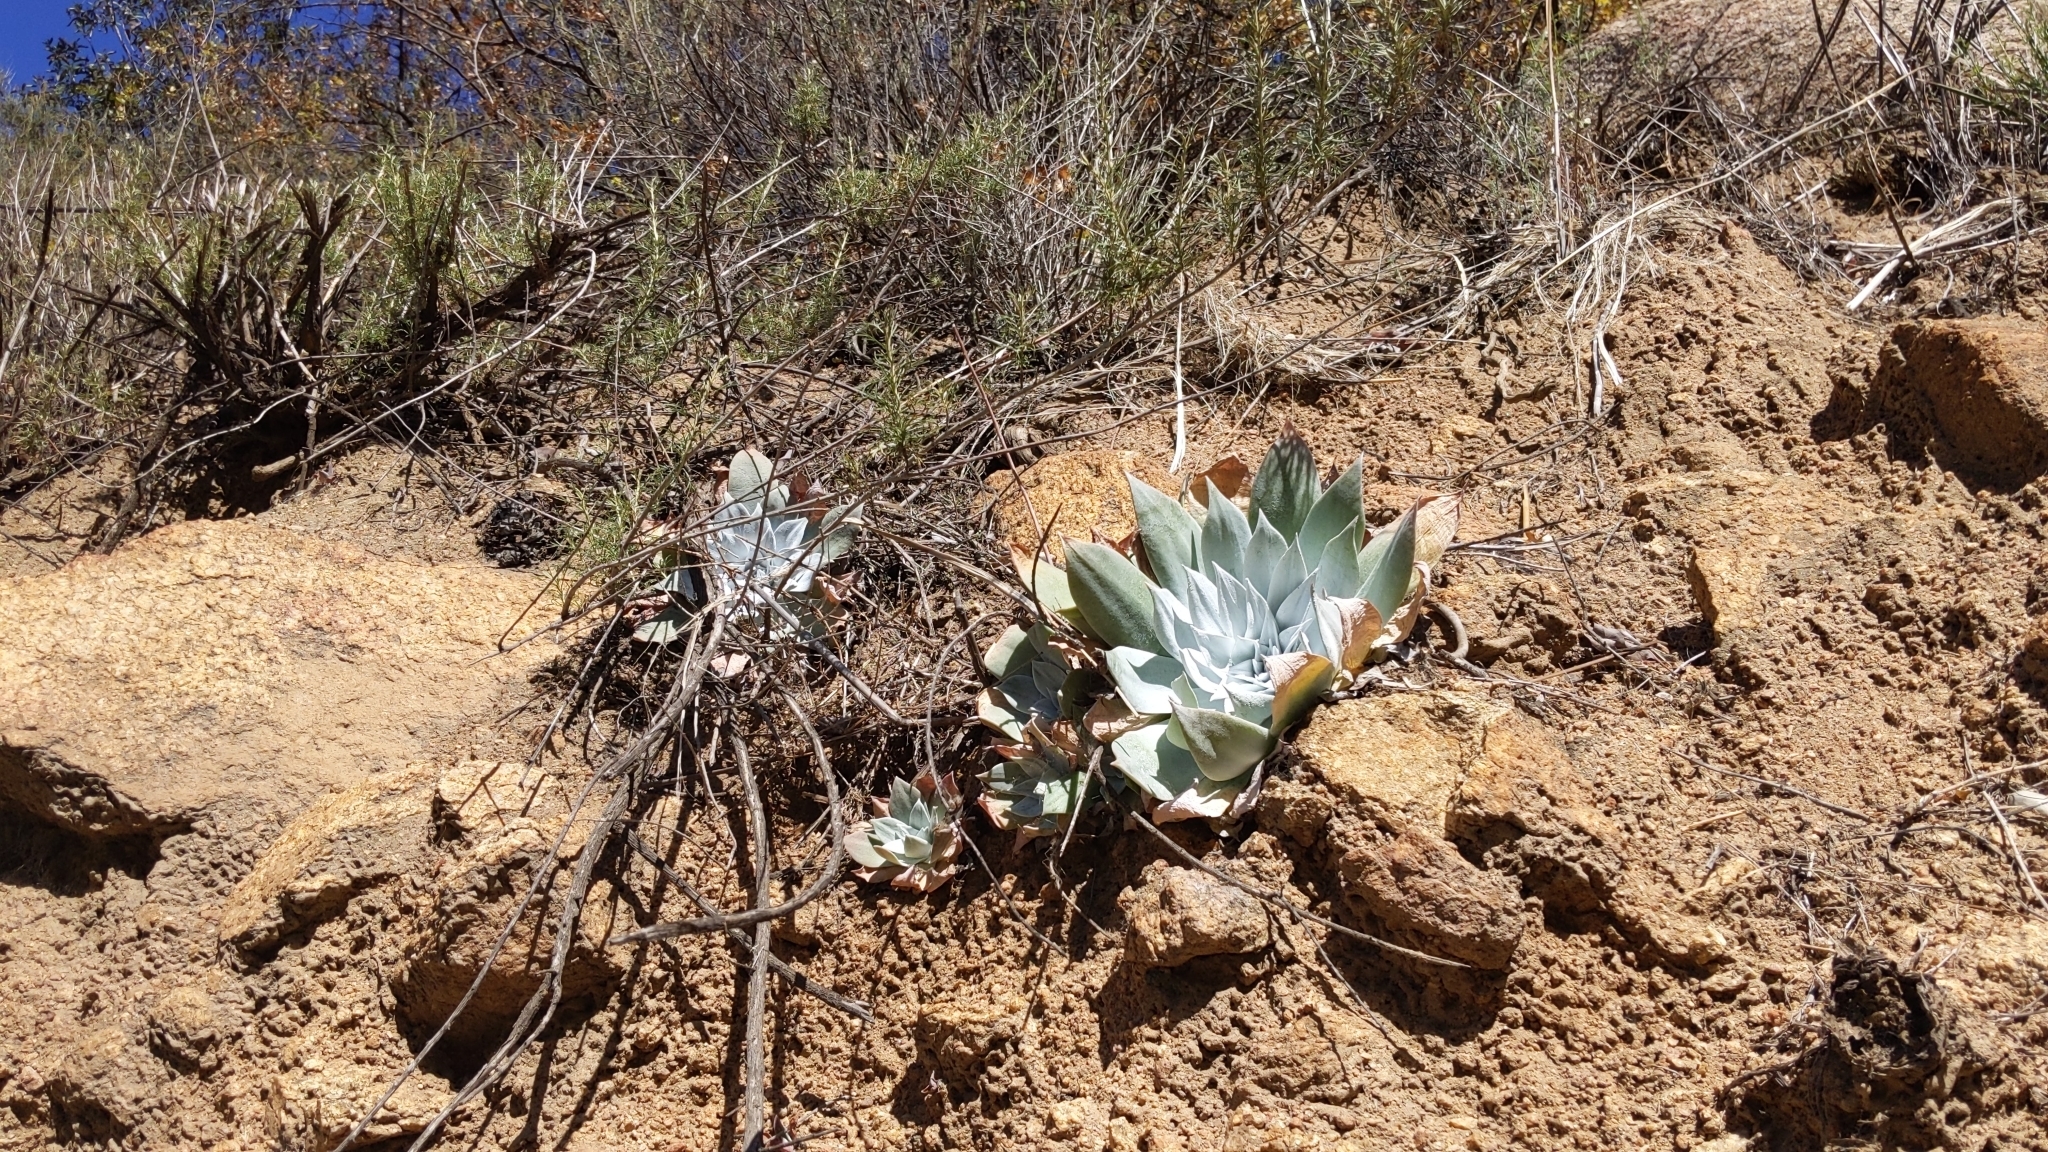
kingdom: Plantae
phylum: Tracheophyta
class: Magnoliopsida
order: Saxifragales
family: Crassulaceae
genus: Dudleya
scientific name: Dudleya pulverulenta
